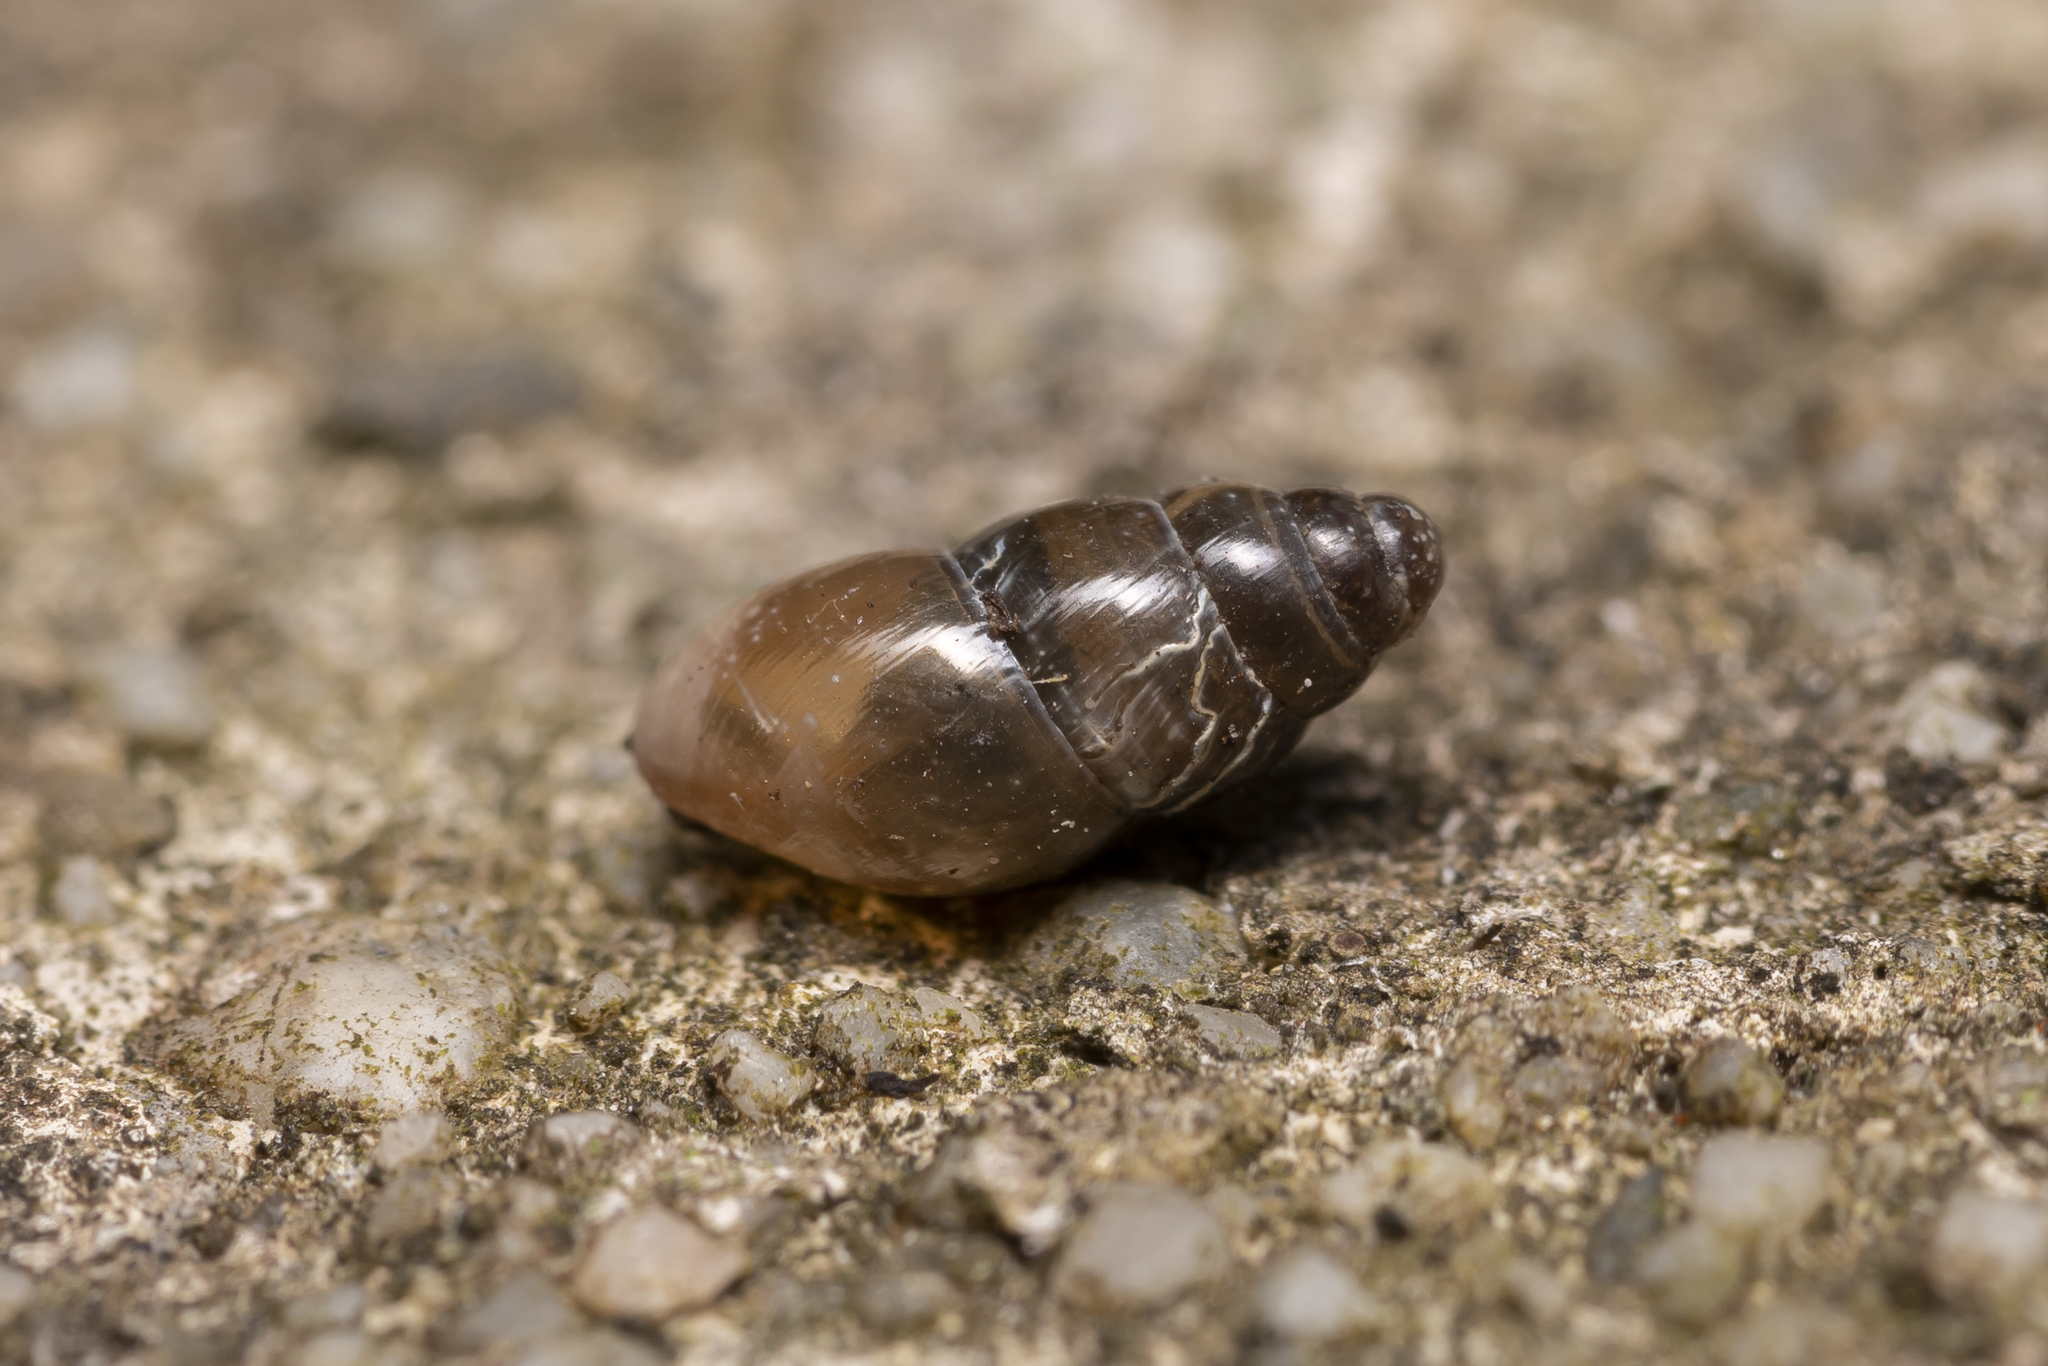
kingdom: Animalia
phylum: Mollusca
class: Gastropoda
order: Stylommatophora
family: Cochlicopidae
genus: Cochlicopa
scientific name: Cochlicopa lubrica
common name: Glossy pillar snail
